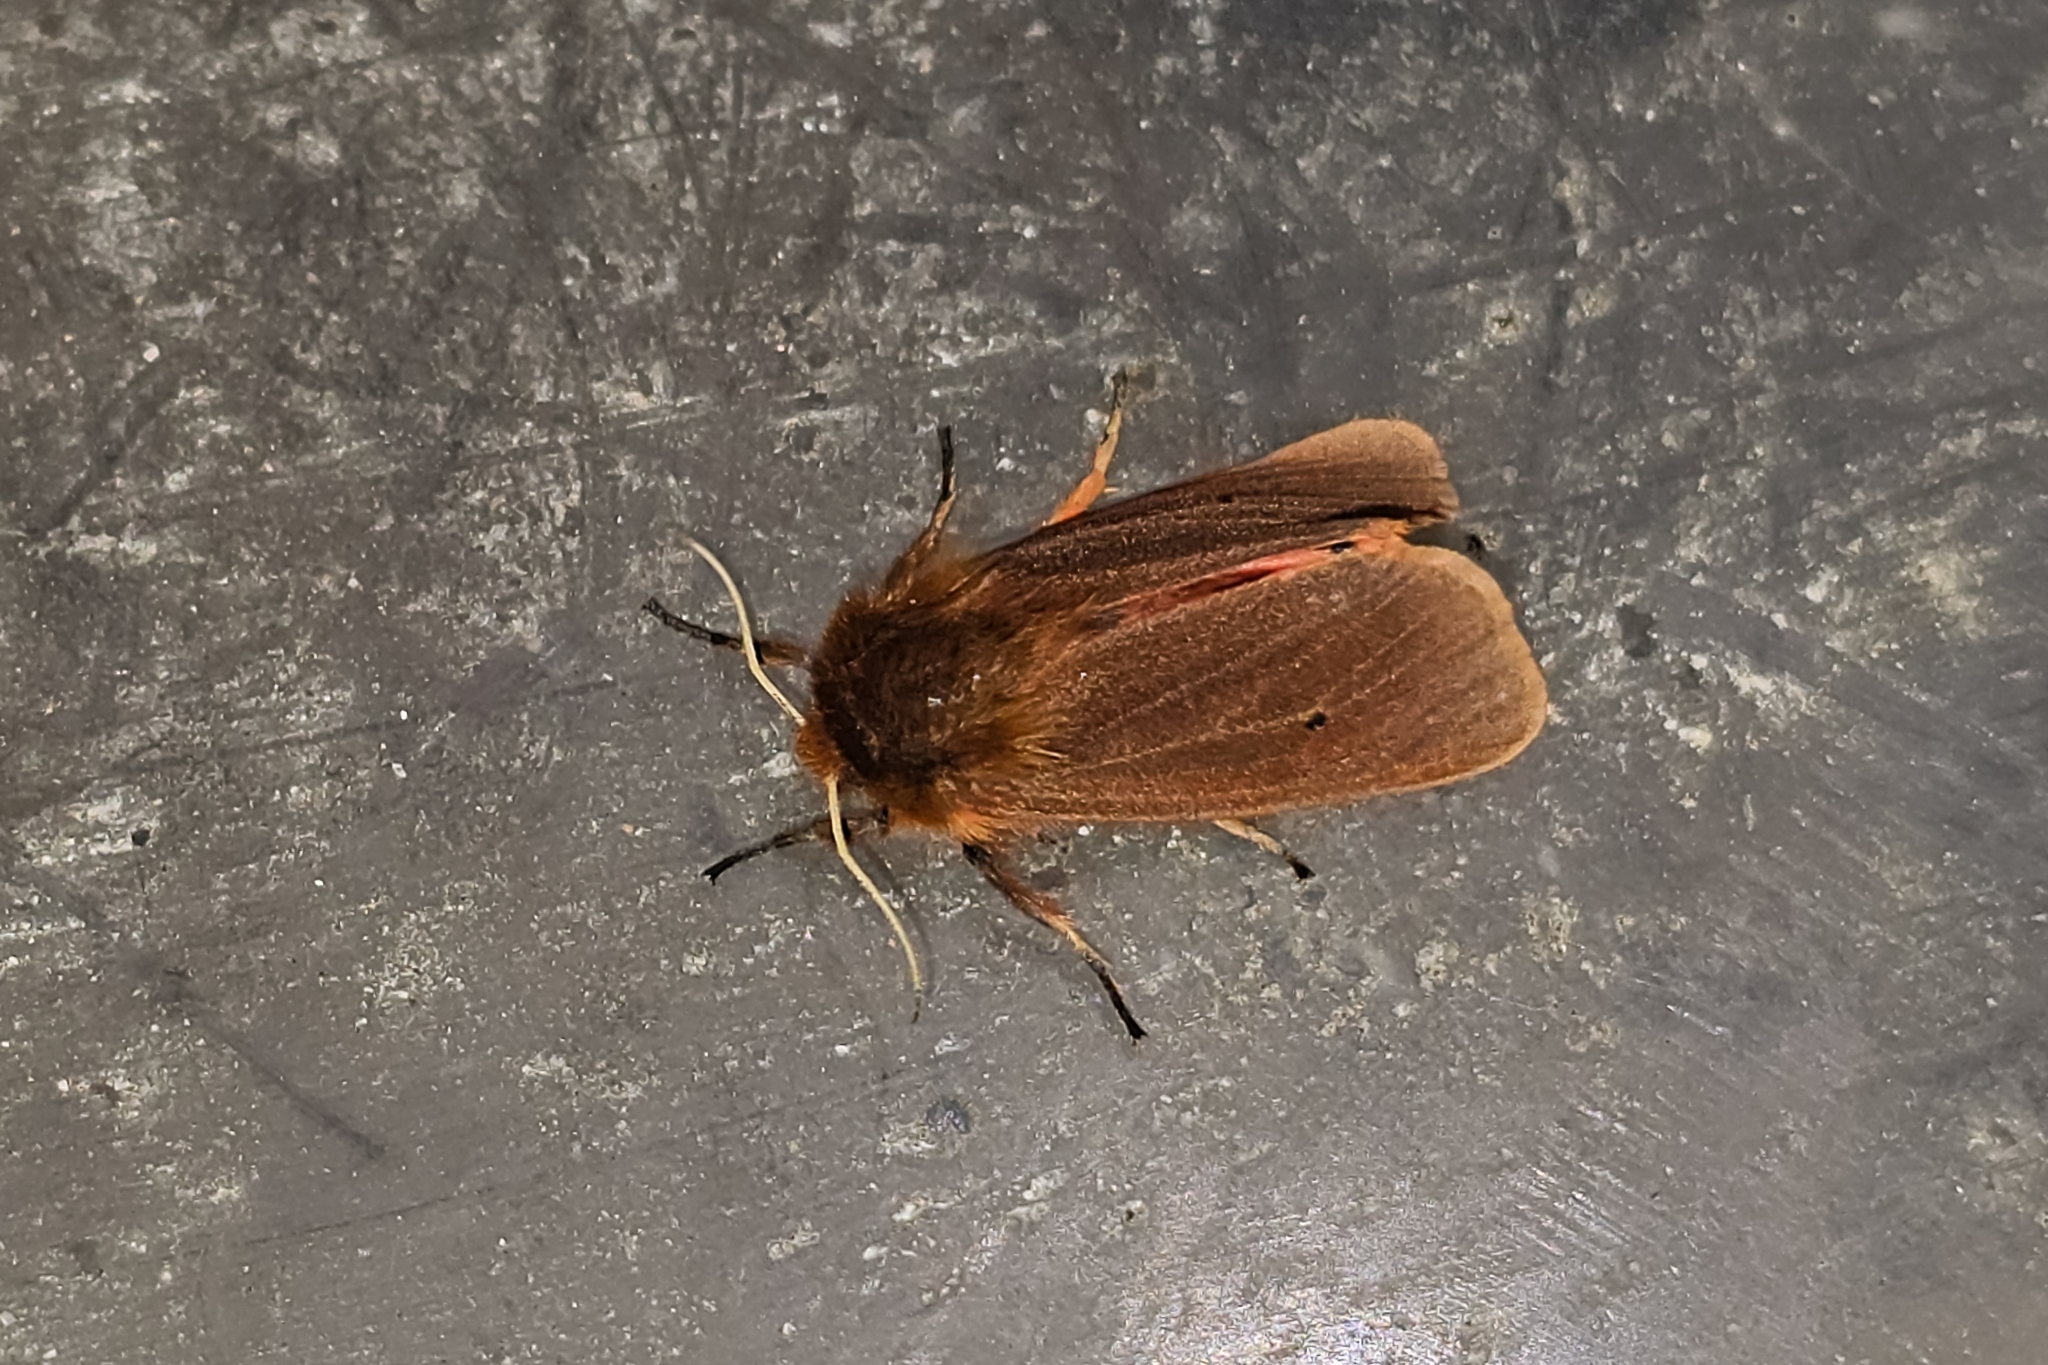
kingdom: Animalia
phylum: Arthropoda
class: Insecta
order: Lepidoptera
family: Erebidae
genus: Phragmatobia
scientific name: Phragmatobia fuliginosa
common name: Ruby tiger
